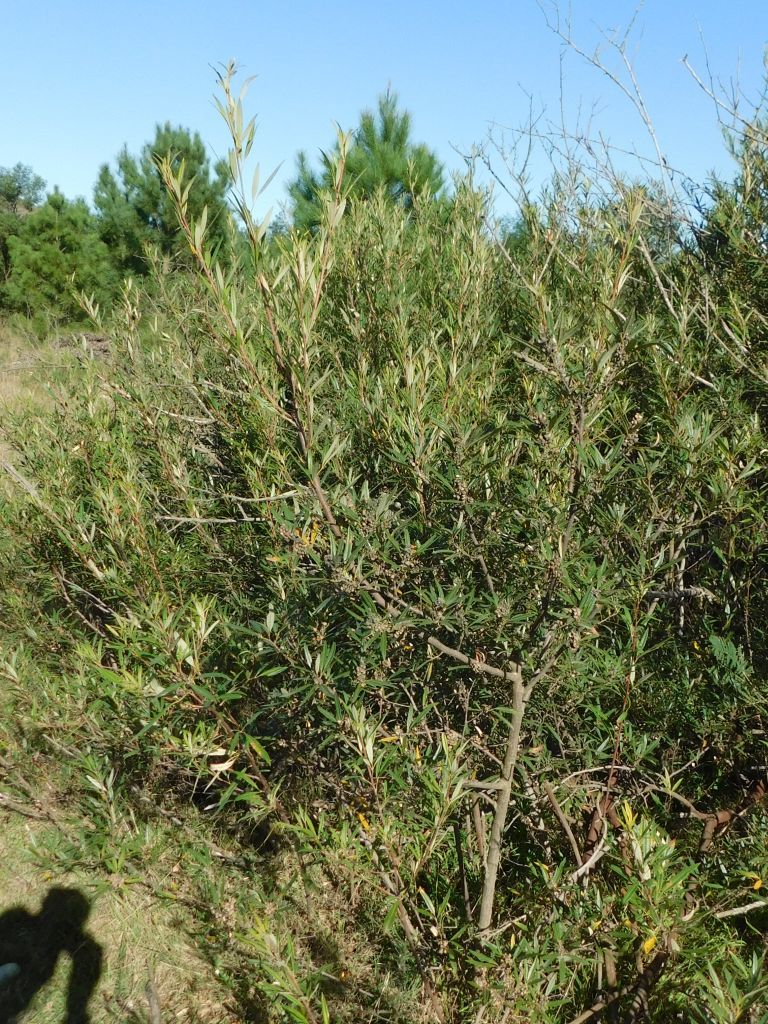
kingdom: Plantae
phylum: Tracheophyta
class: Magnoliopsida
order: Sapindales
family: Anacardiaceae
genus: Searsia
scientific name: Searsia angustifolia
